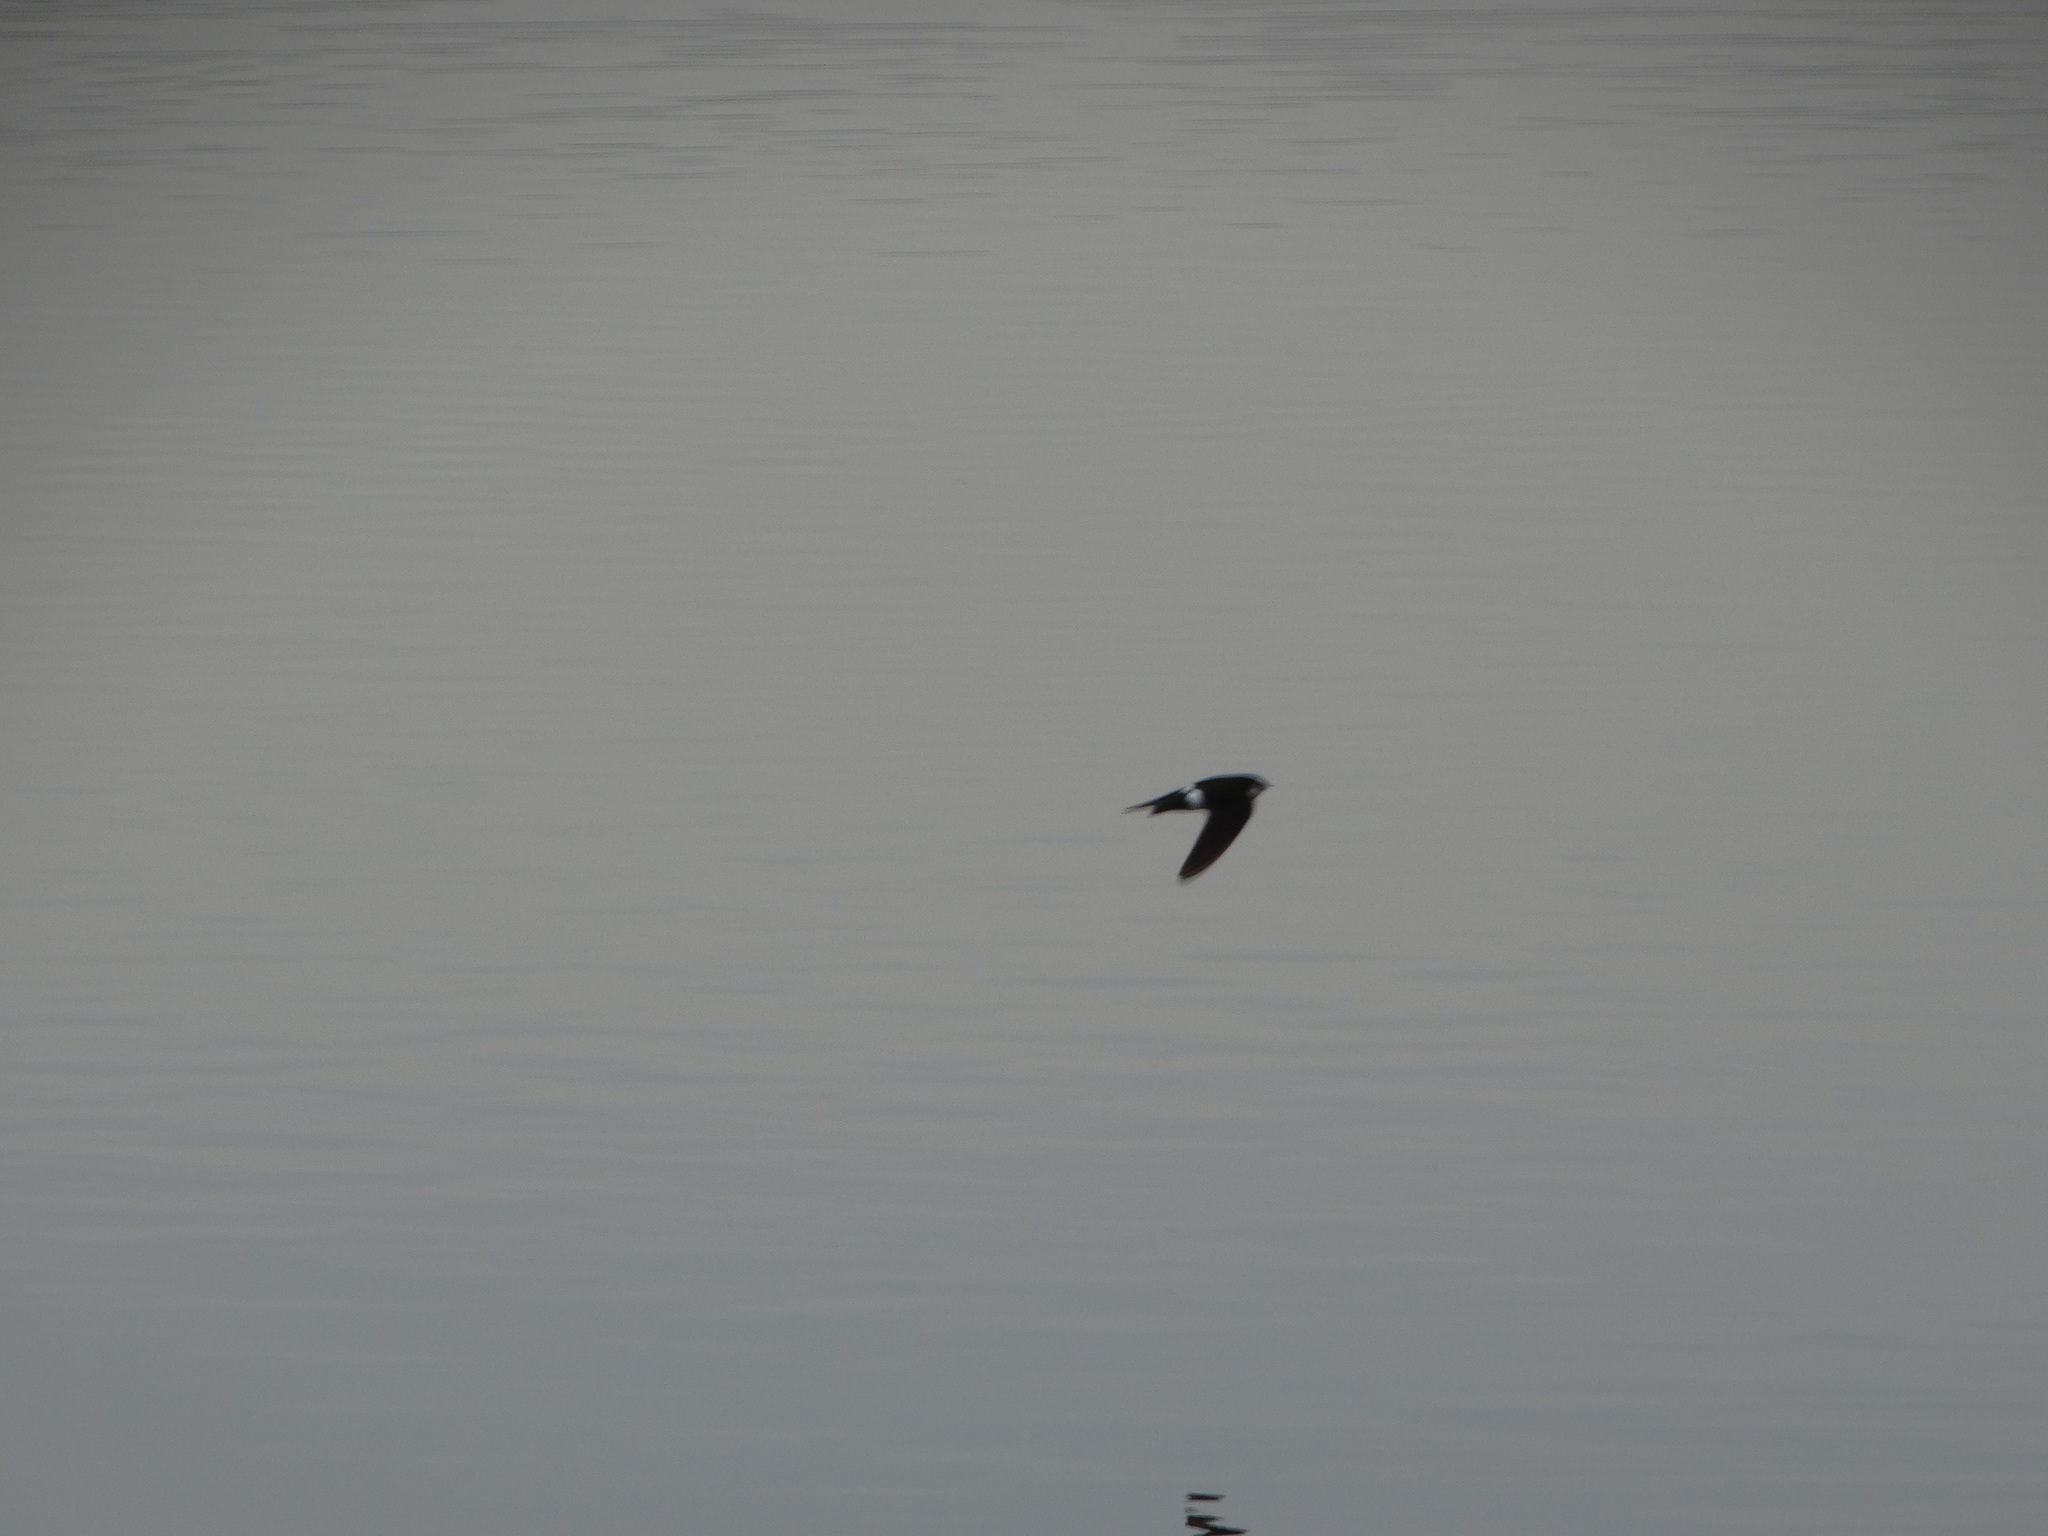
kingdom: Animalia
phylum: Chordata
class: Aves
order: Passeriformes
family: Hirundinidae
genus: Tachycineta
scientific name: Tachycineta thalassina
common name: Violet-green swallow
